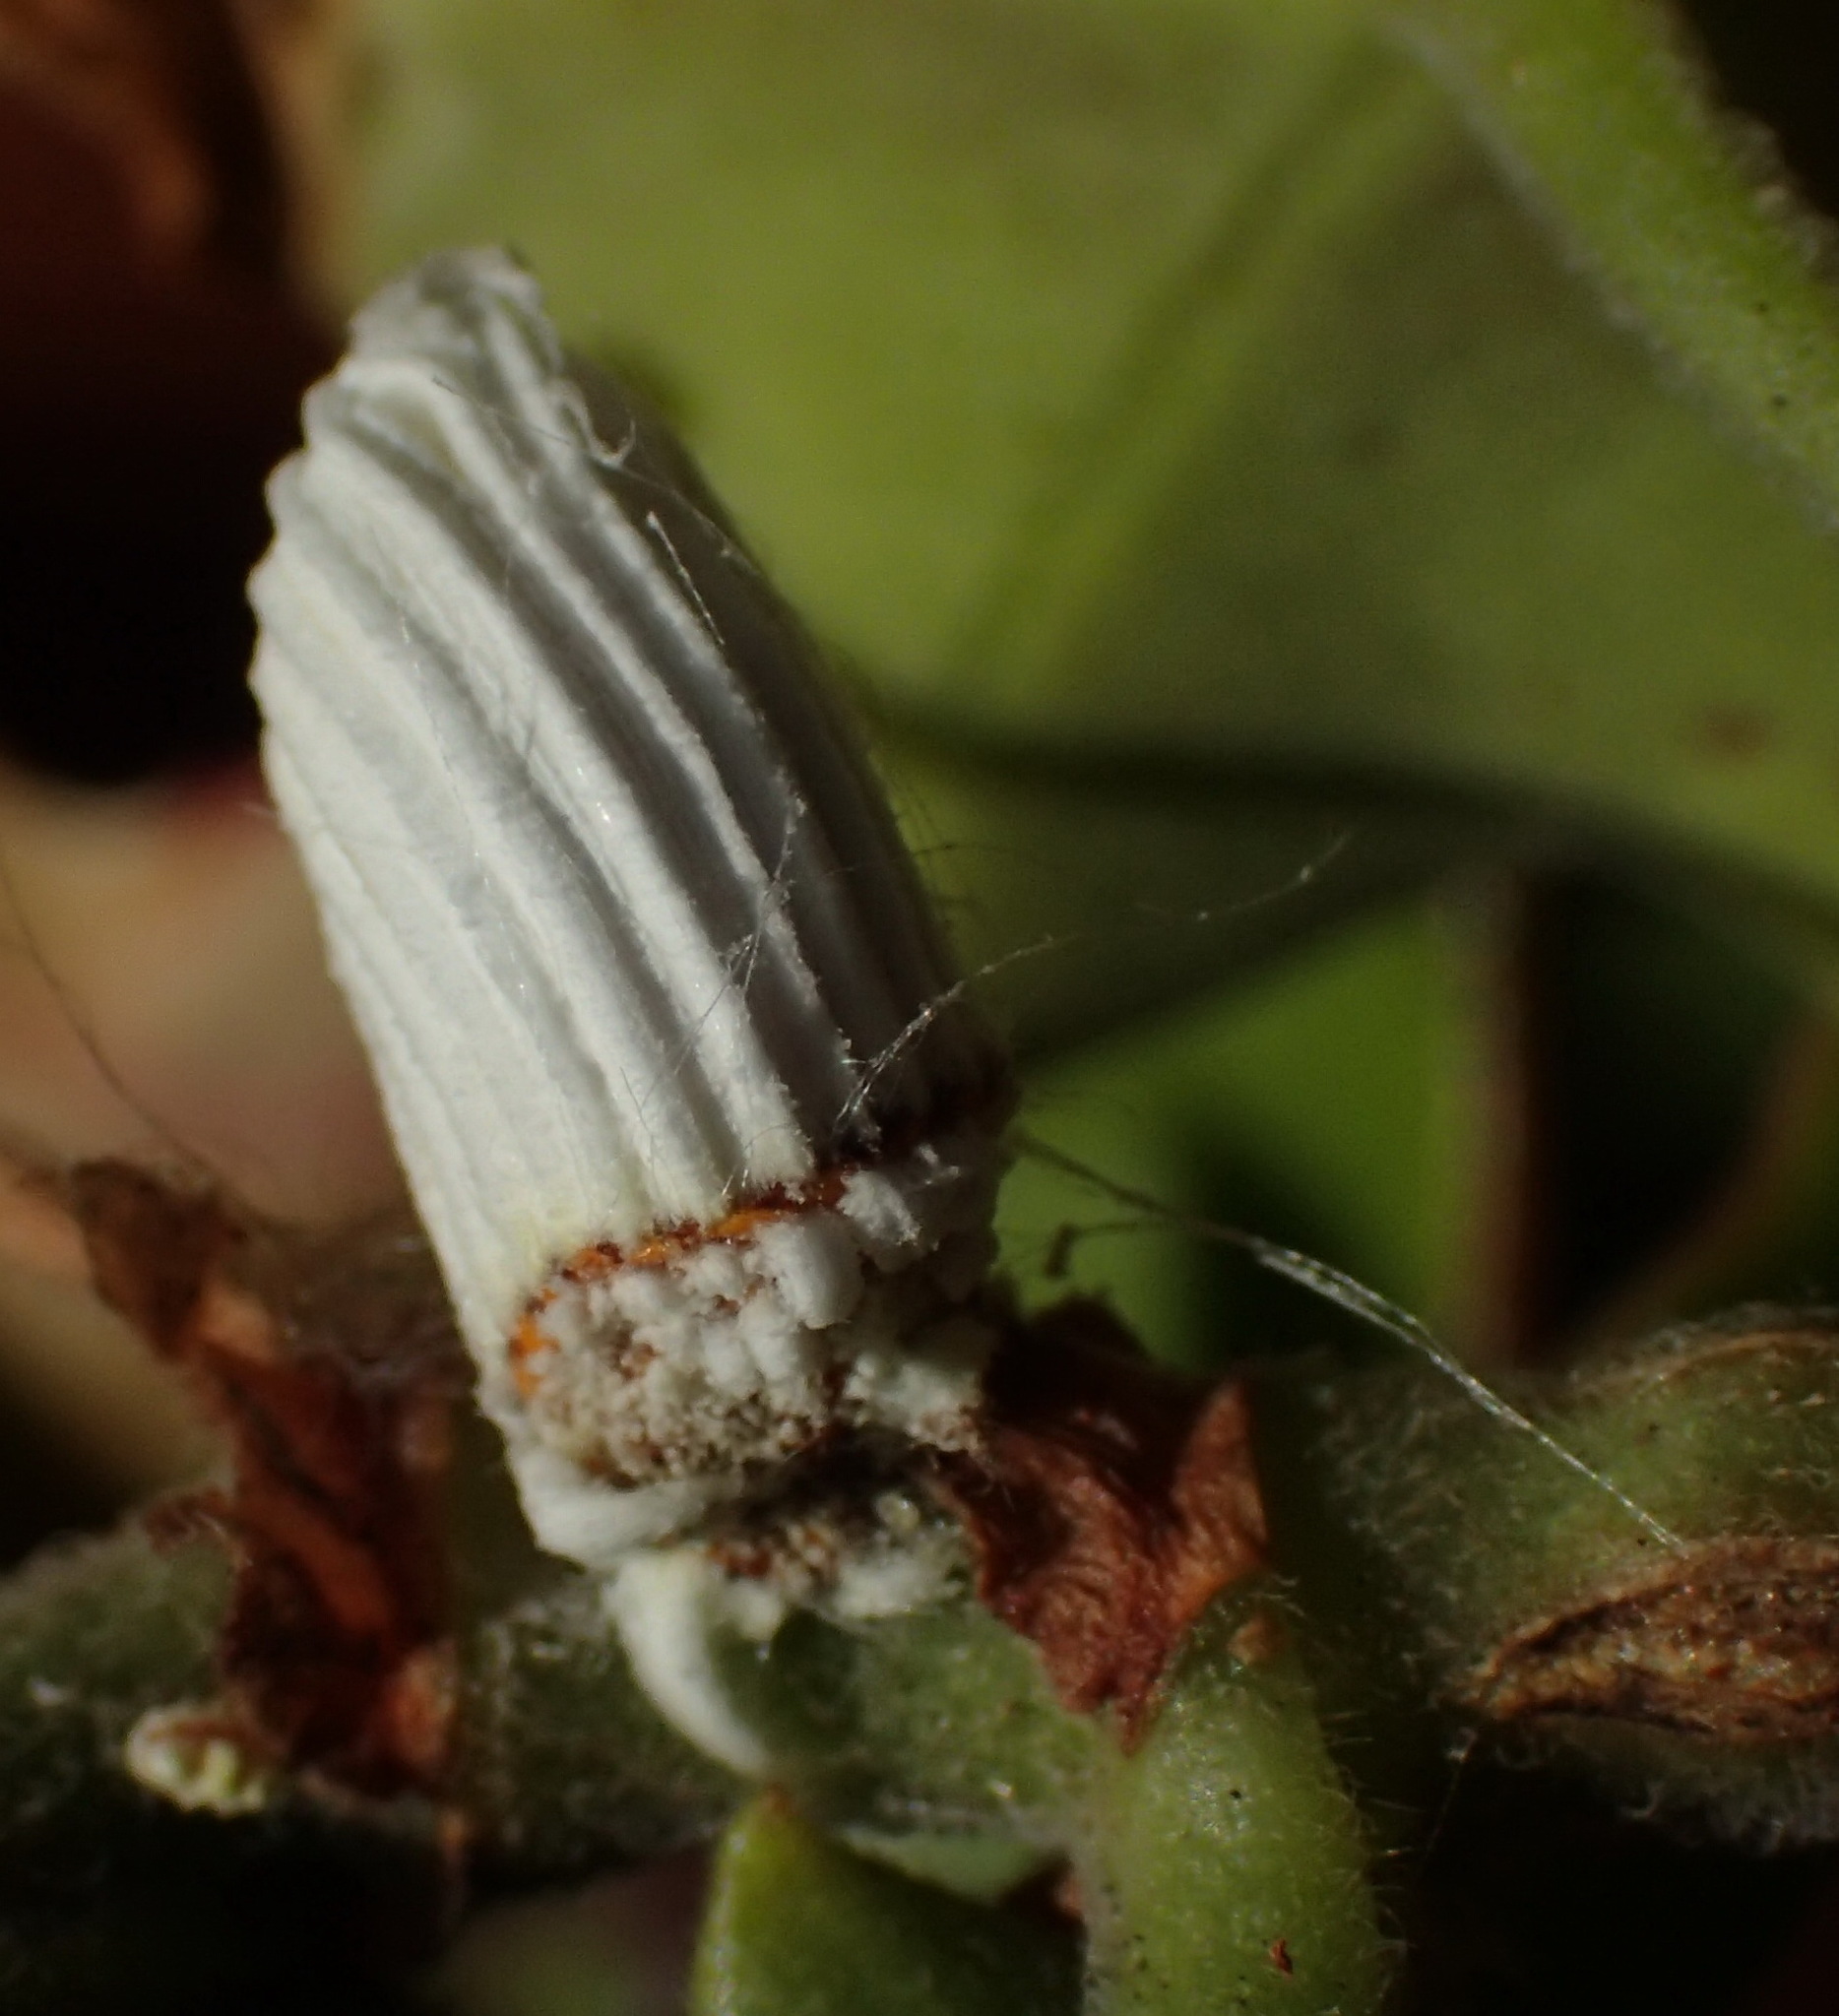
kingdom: Animalia
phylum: Arthropoda
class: Insecta
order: Hemiptera
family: Margarodidae
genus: Icerya
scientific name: Icerya purchasi
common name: Cottony cushion scale
